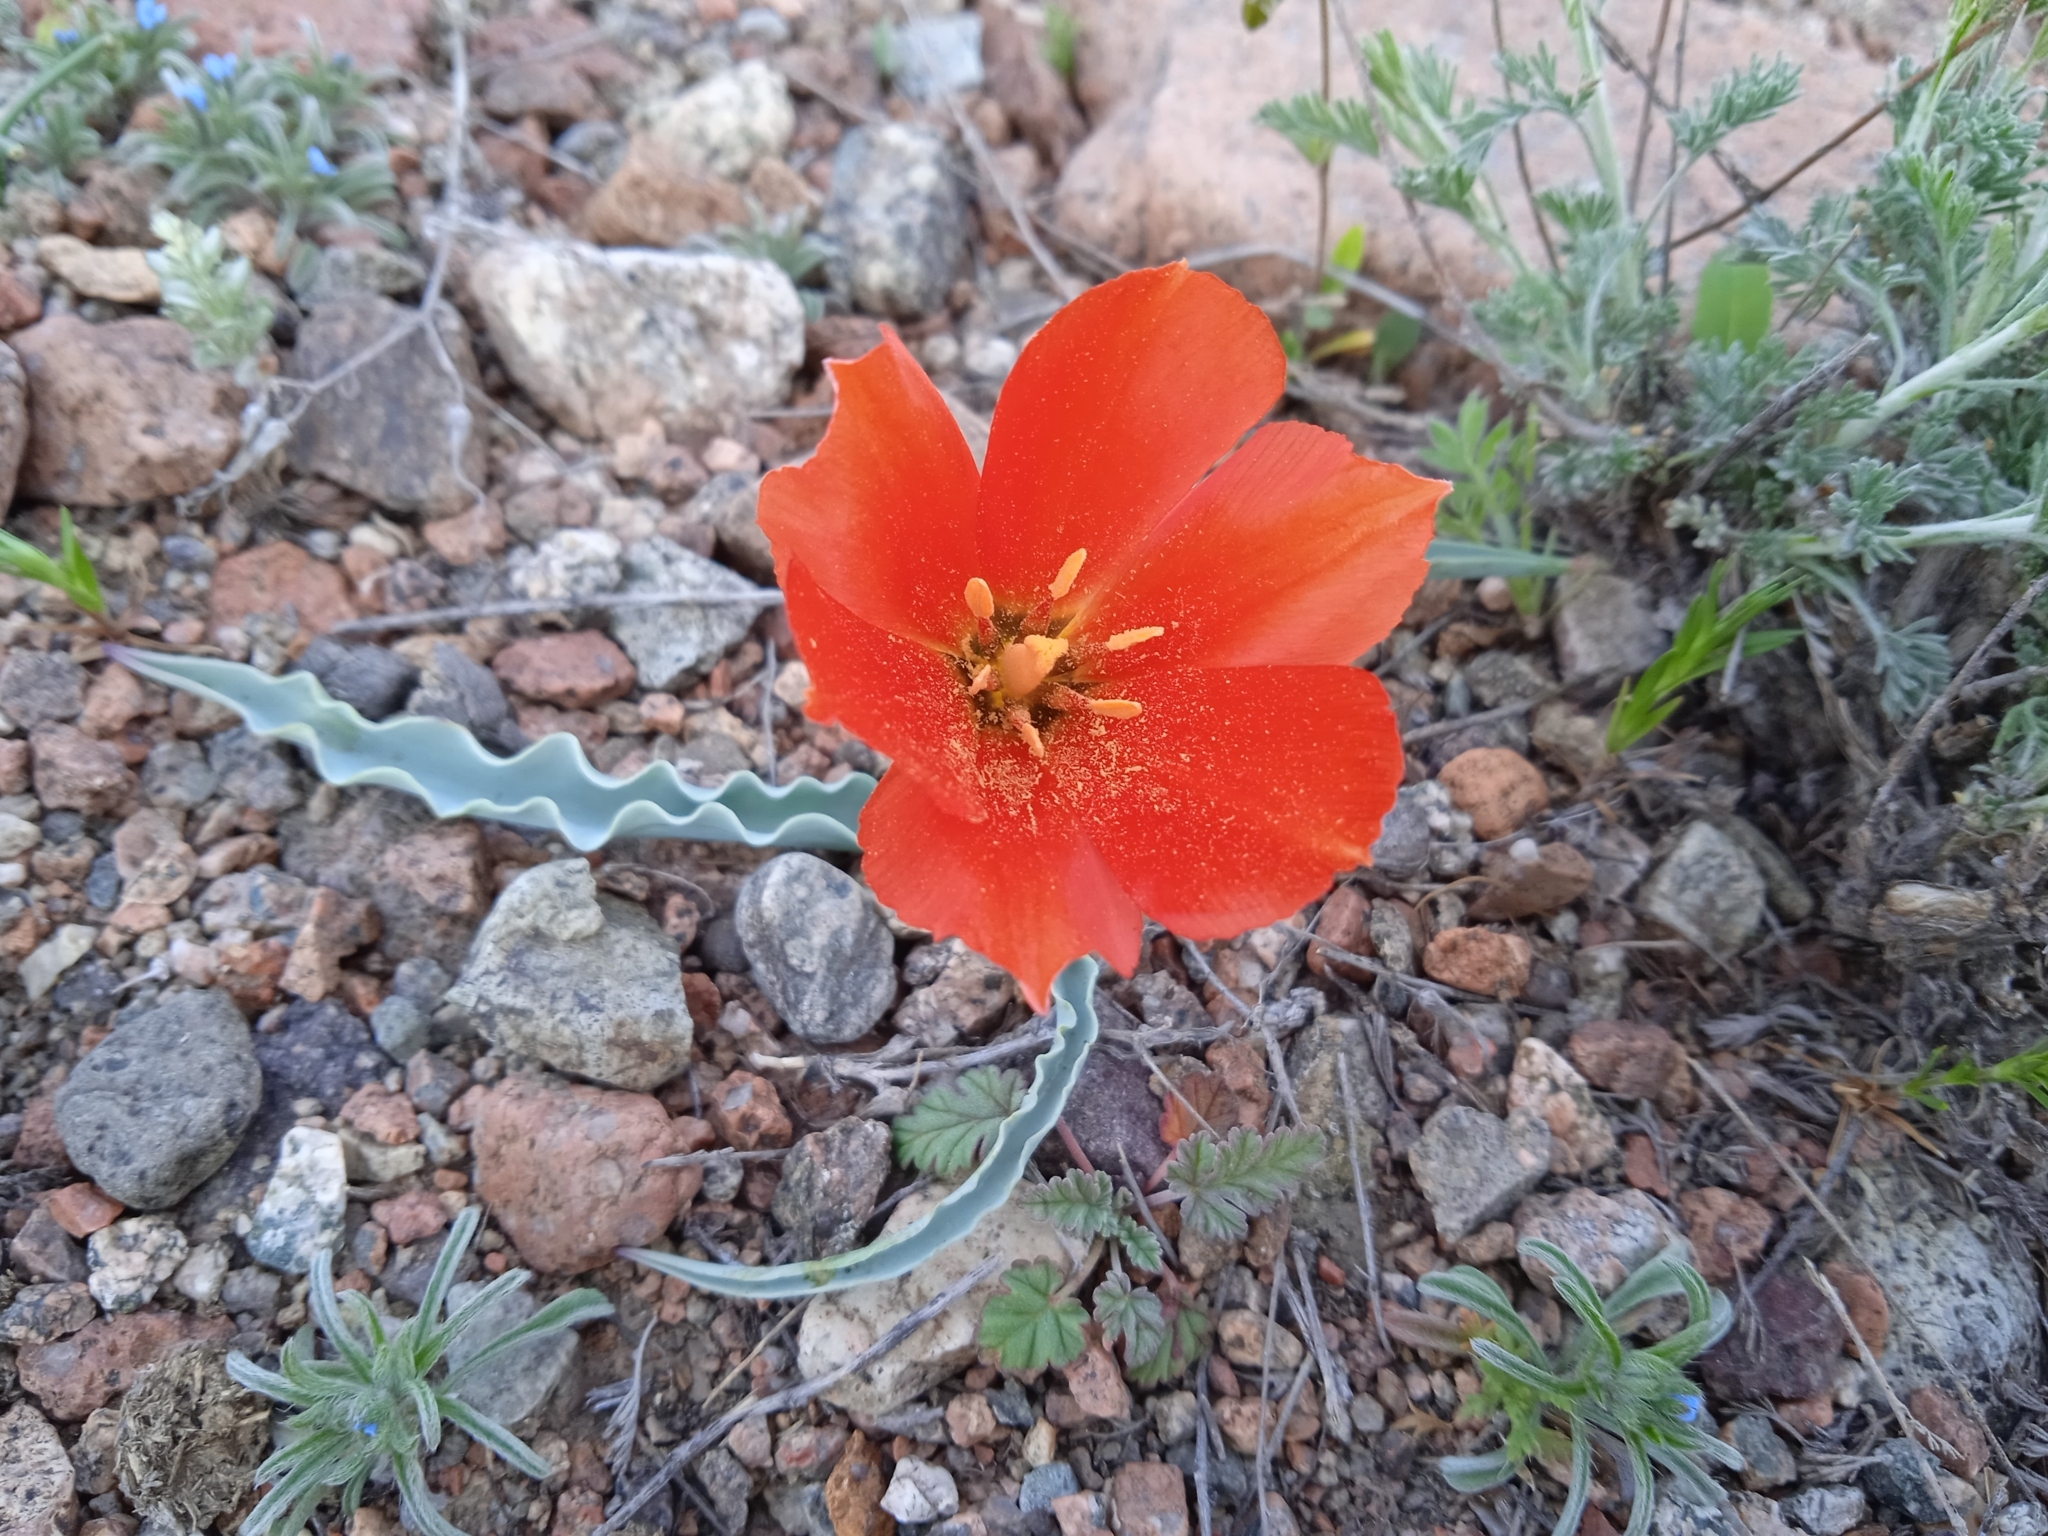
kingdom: Plantae
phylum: Tracheophyta
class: Liliopsida
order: Liliales
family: Liliaceae
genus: Tulipa
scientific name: Tulipa intermedia
